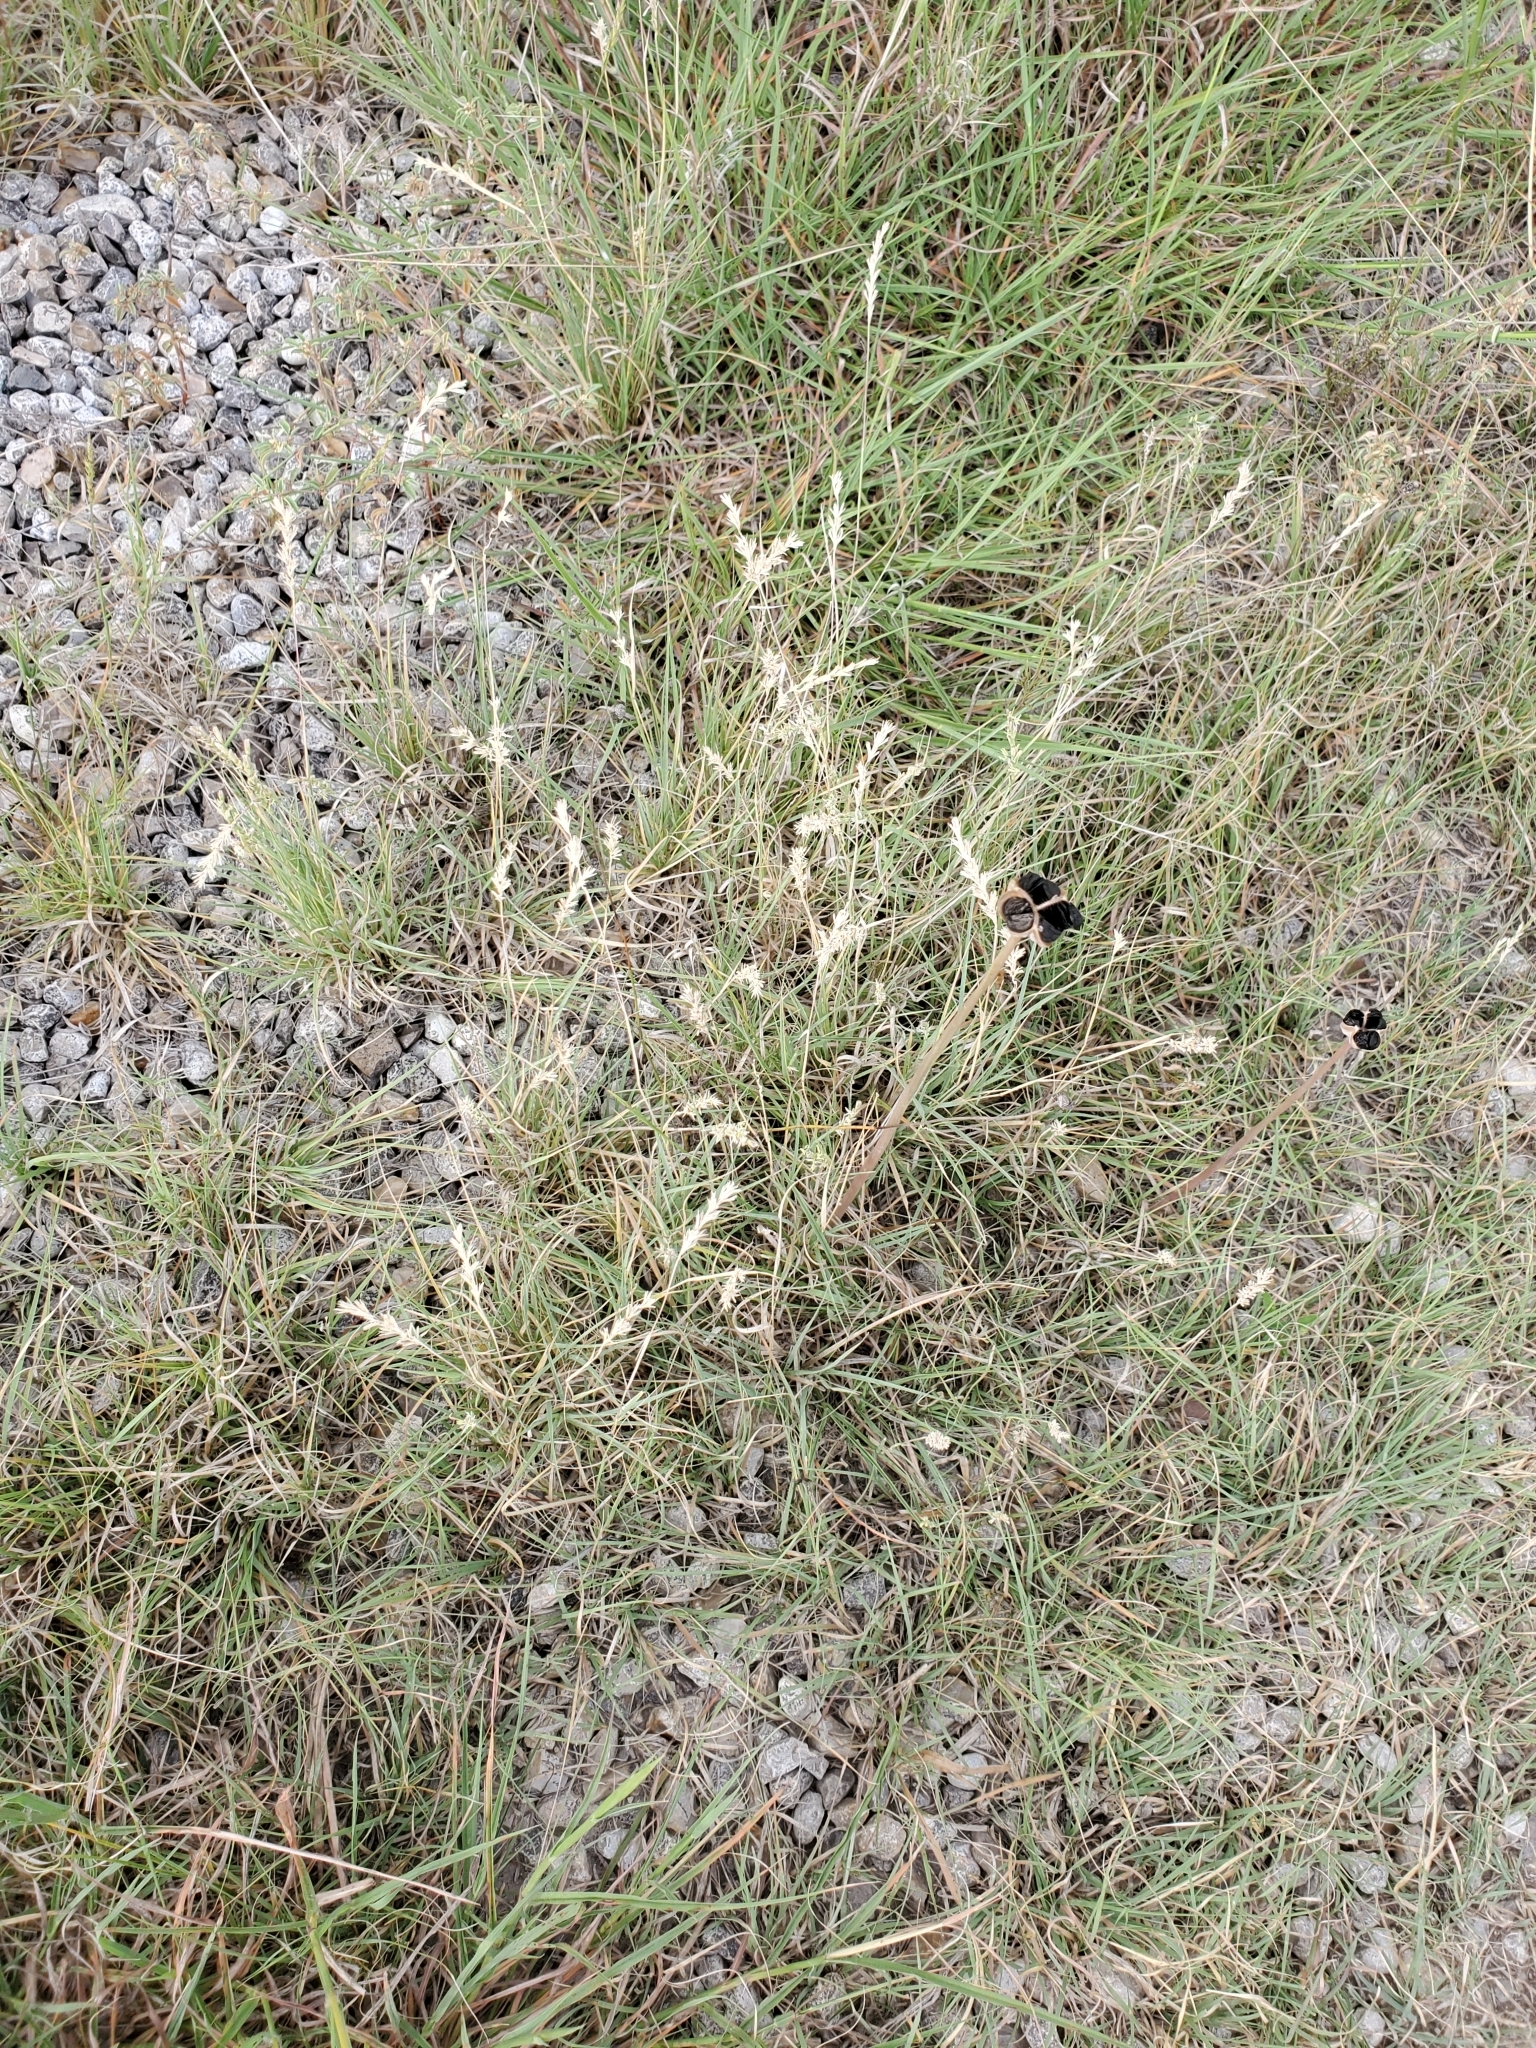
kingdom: Plantae
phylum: Tracheophyta
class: Liliopsida
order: Poales
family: Poaceae
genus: Hilaria
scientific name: Hilaria belangeri
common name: Curly-mesquite
